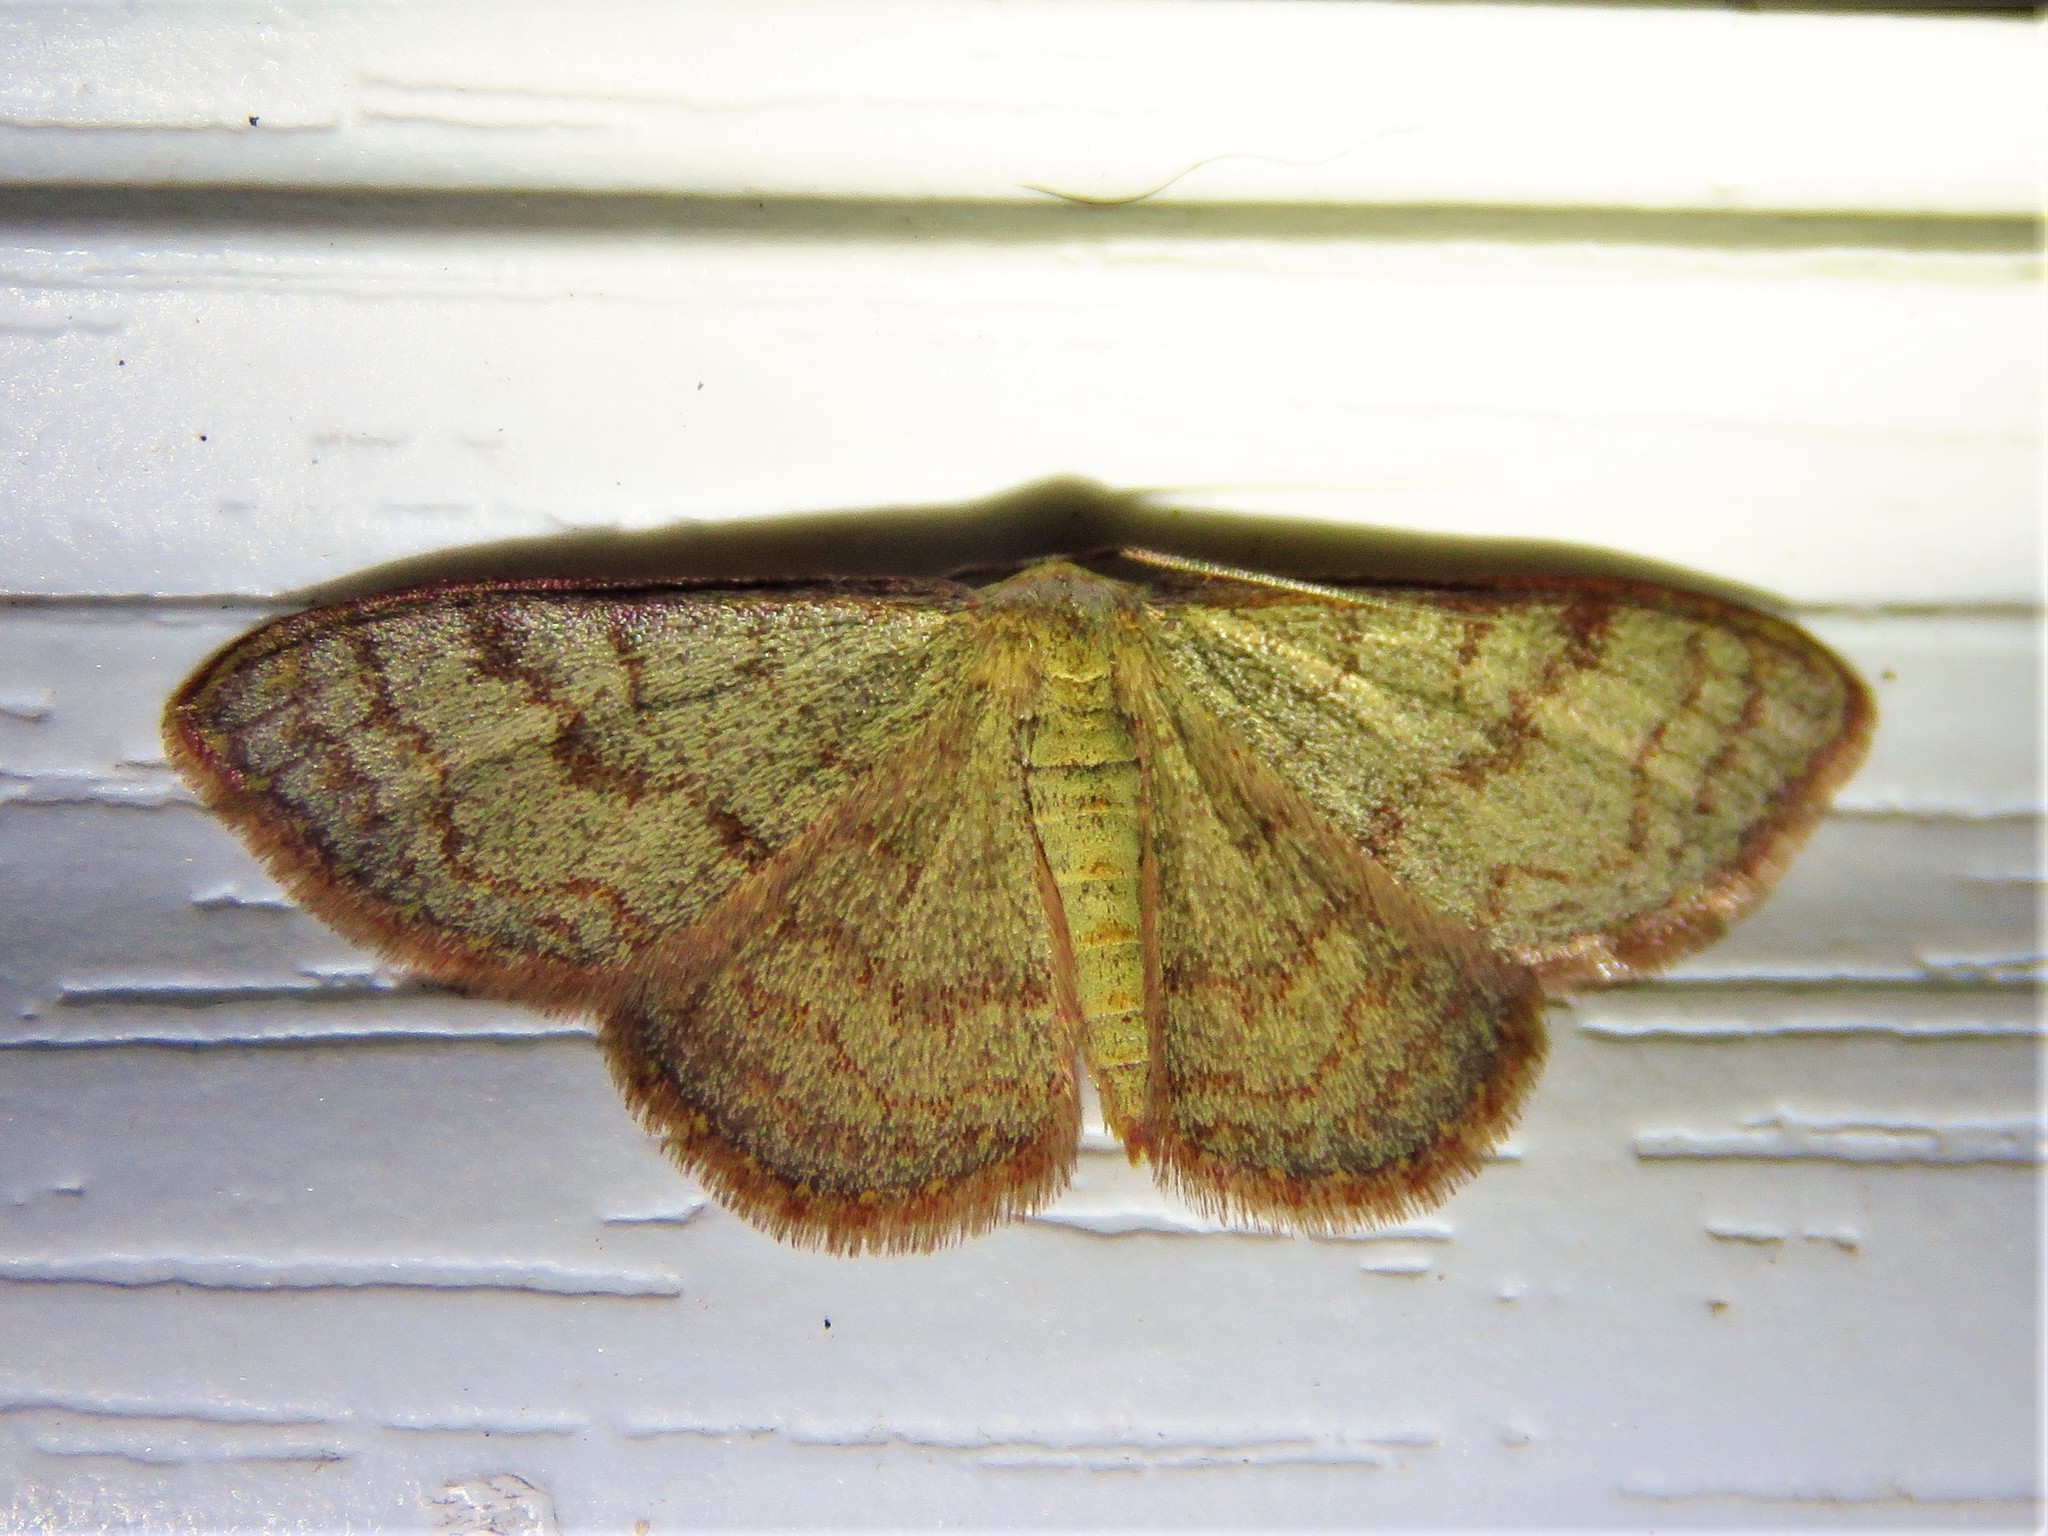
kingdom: Animalia
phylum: Arthropoda
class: Insecta
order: Lepidoptera
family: Geometridae
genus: Leptostales
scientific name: Leptostales pannaria
